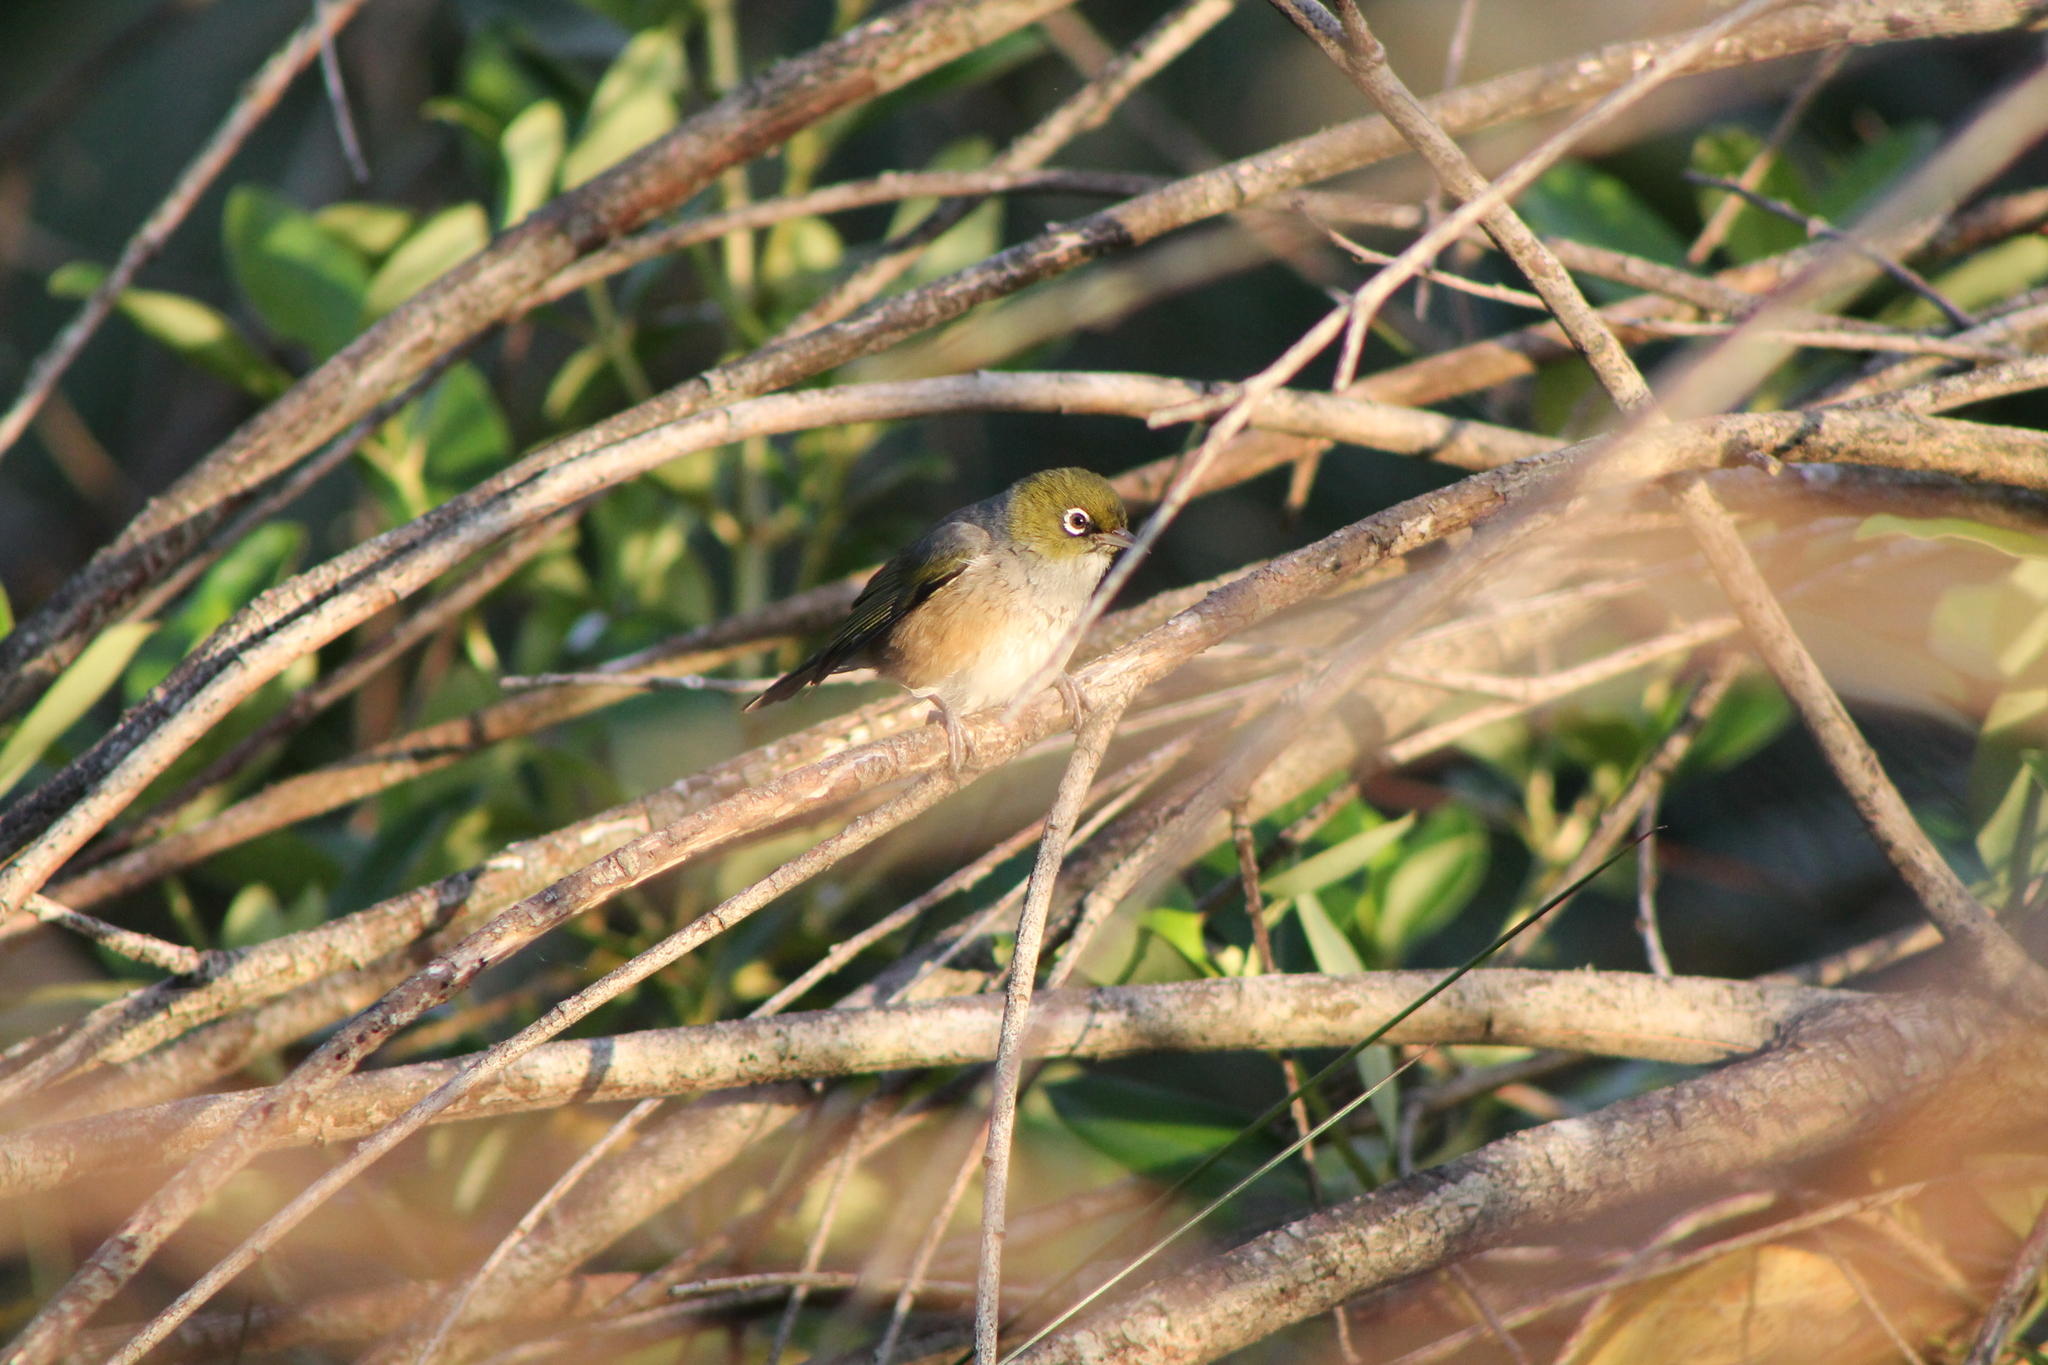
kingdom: Animalia
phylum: Chordata
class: Aves
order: Passeriformes
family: Zosteropidae
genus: Zosterops
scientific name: Zosterops lateralis
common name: Silvereye
